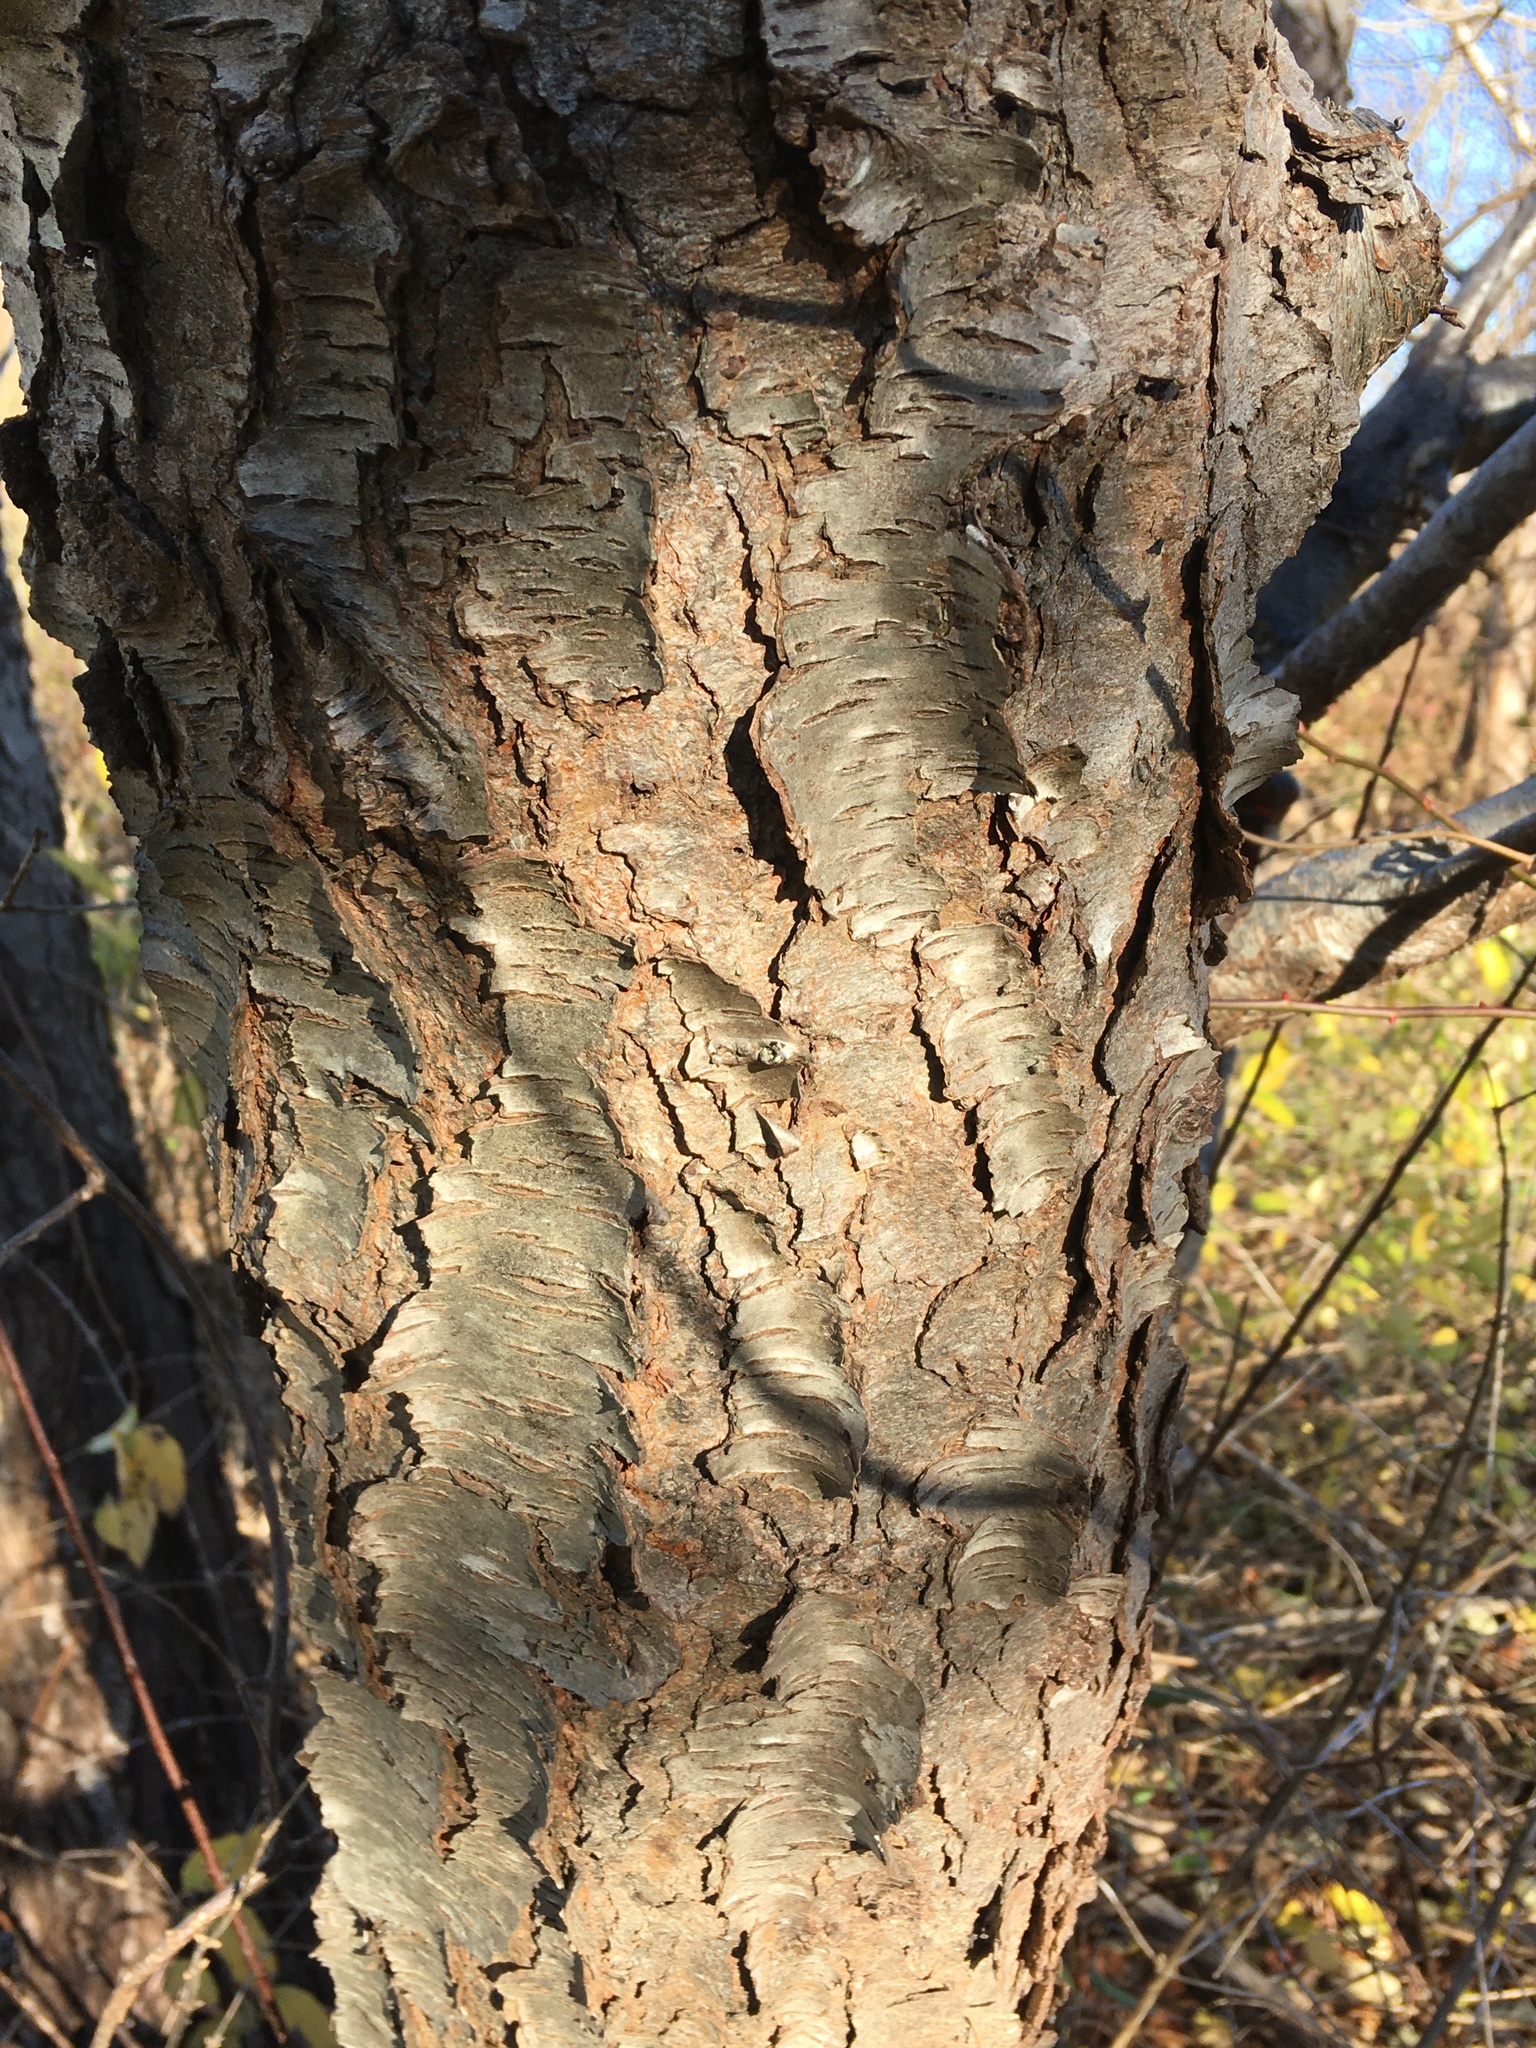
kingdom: Plantae
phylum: Tracheophyta
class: Magnoliopsida
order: Rosales
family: Rosaceae
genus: Prunus
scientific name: Prunus serotina
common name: Black cherry
